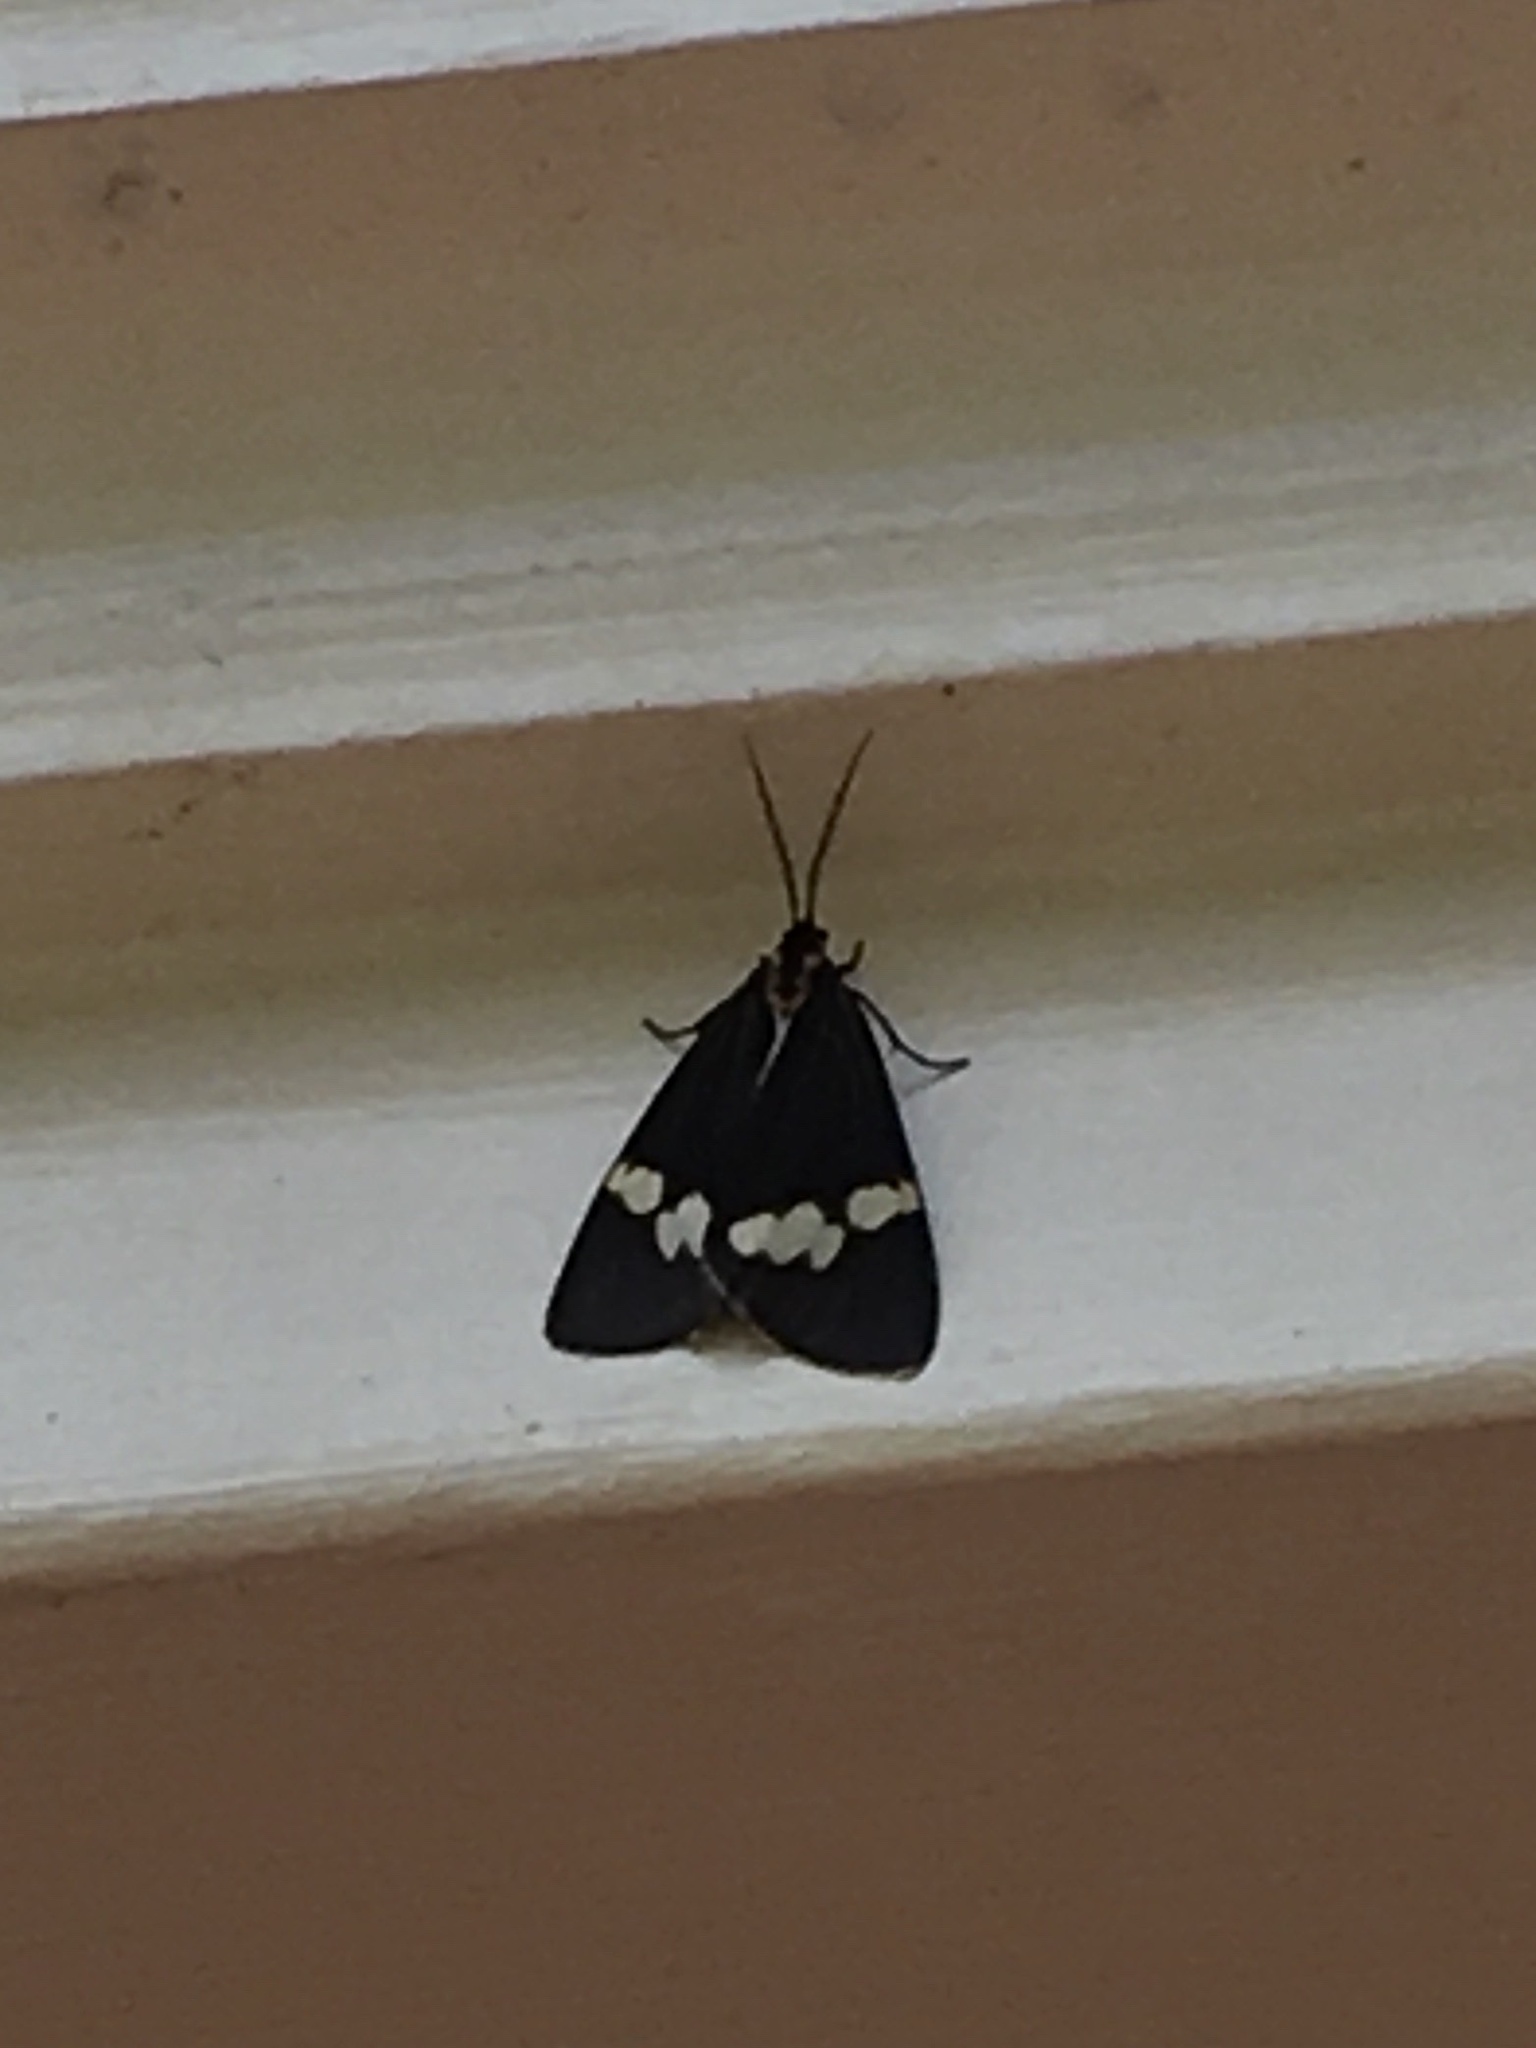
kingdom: Animalia
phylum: Arthropoda
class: Insecta
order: Lepidoptera
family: Erebidae
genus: Nyctemera
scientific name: Nyctemera annulatum
